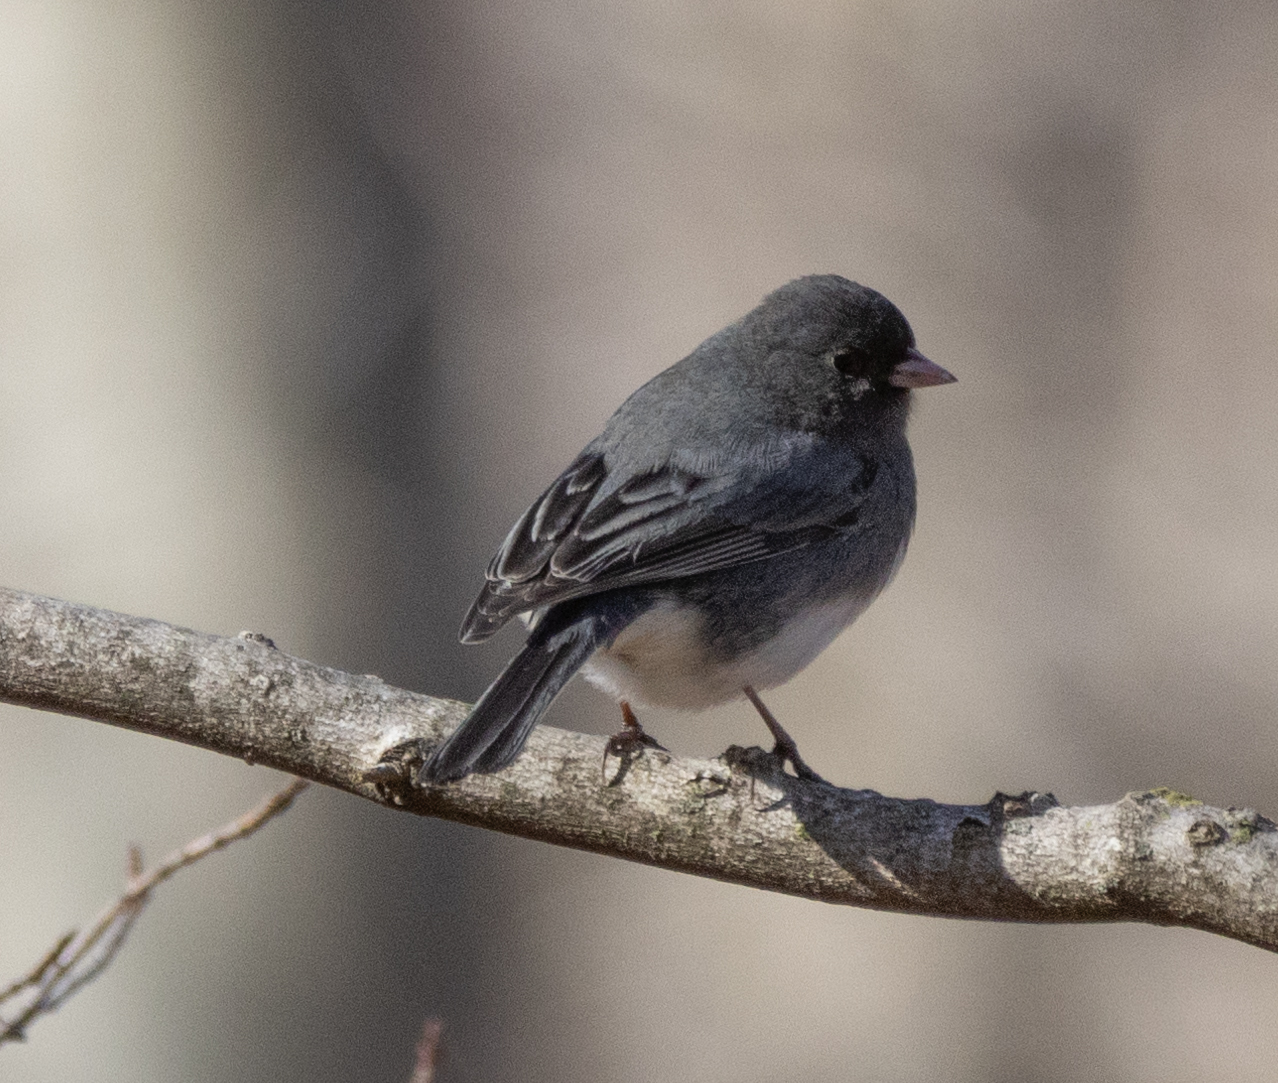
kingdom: Animalia
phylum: Chordata
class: Aves
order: Passeriformes
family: Passerellidae
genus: Junco
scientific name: Junco hyemalis
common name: Dark-eyed junco
